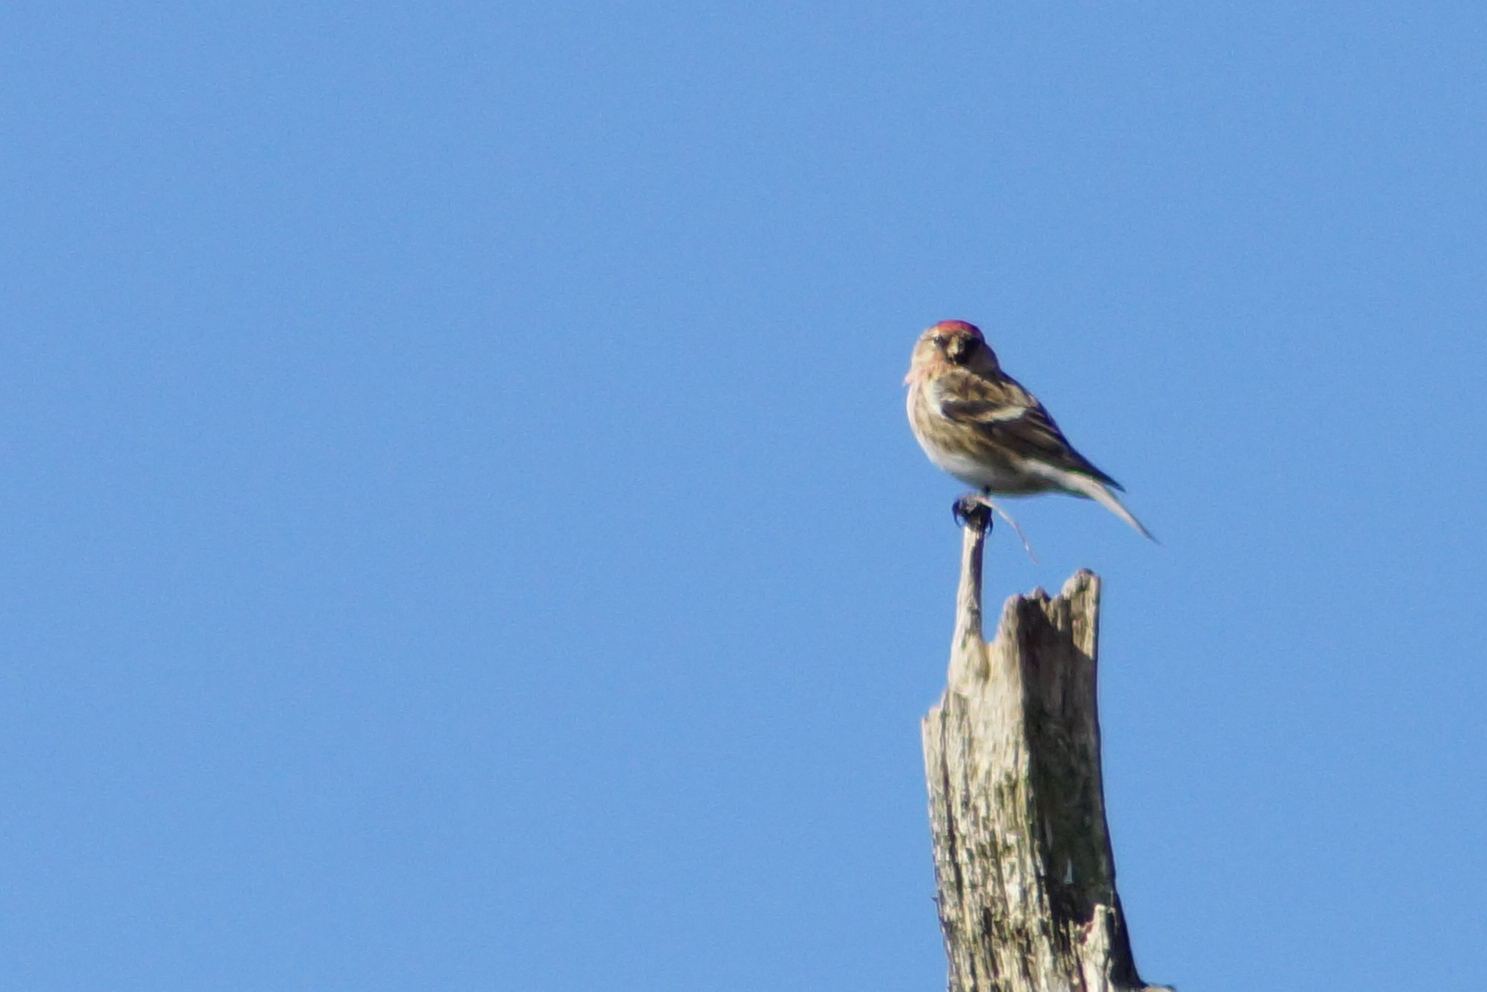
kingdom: Animalia
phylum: Chordata
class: Aves
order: Passeriformes
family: Fringillidae
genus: Acanthis
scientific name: Acanthis flammea
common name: Common redpoll
